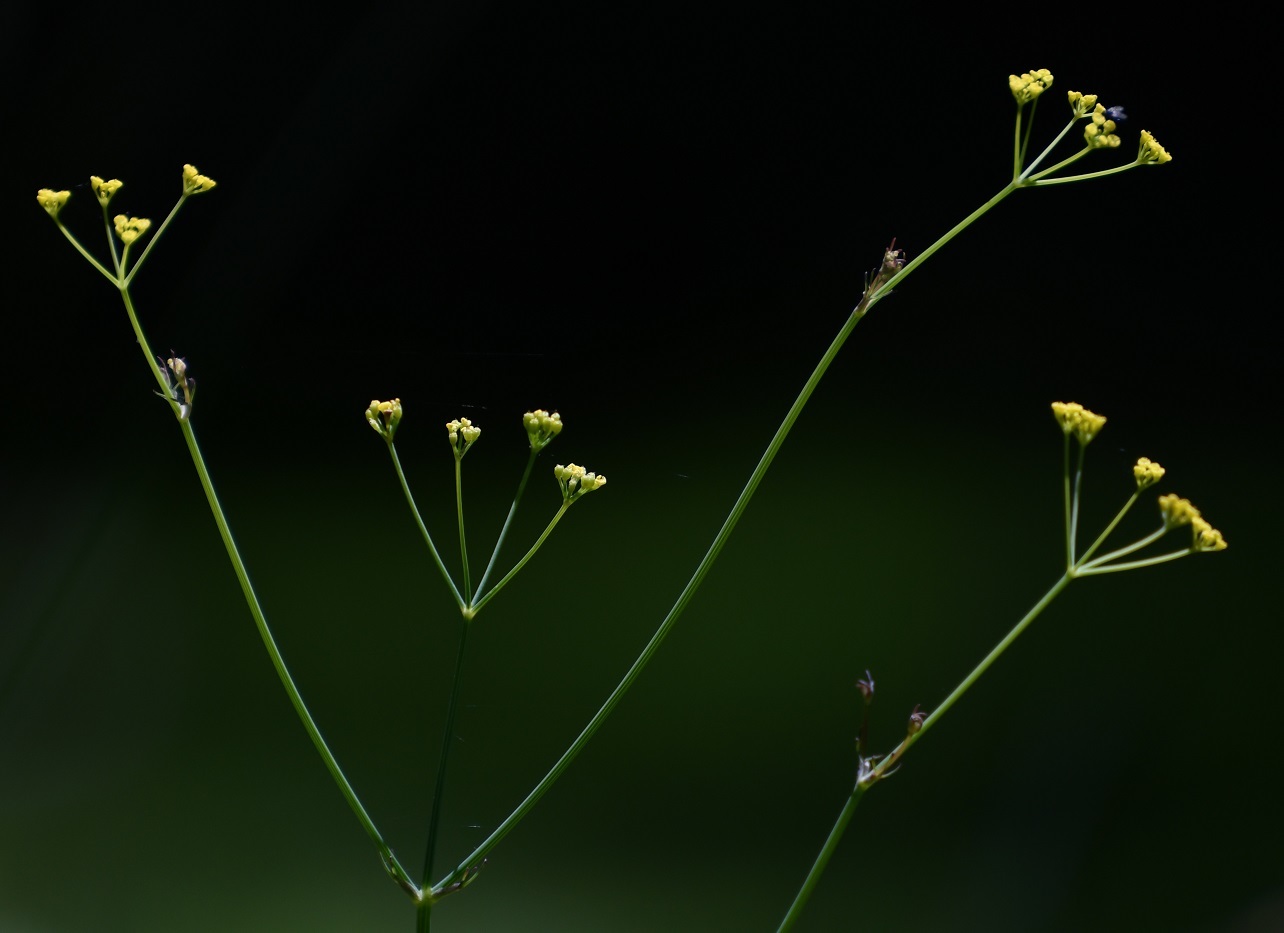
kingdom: Plantae
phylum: Tracheophyta
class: Magnoliopsida
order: Apiales
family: Apiaceae
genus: Donnellsmithia
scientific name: Donnellsmithia juncea
